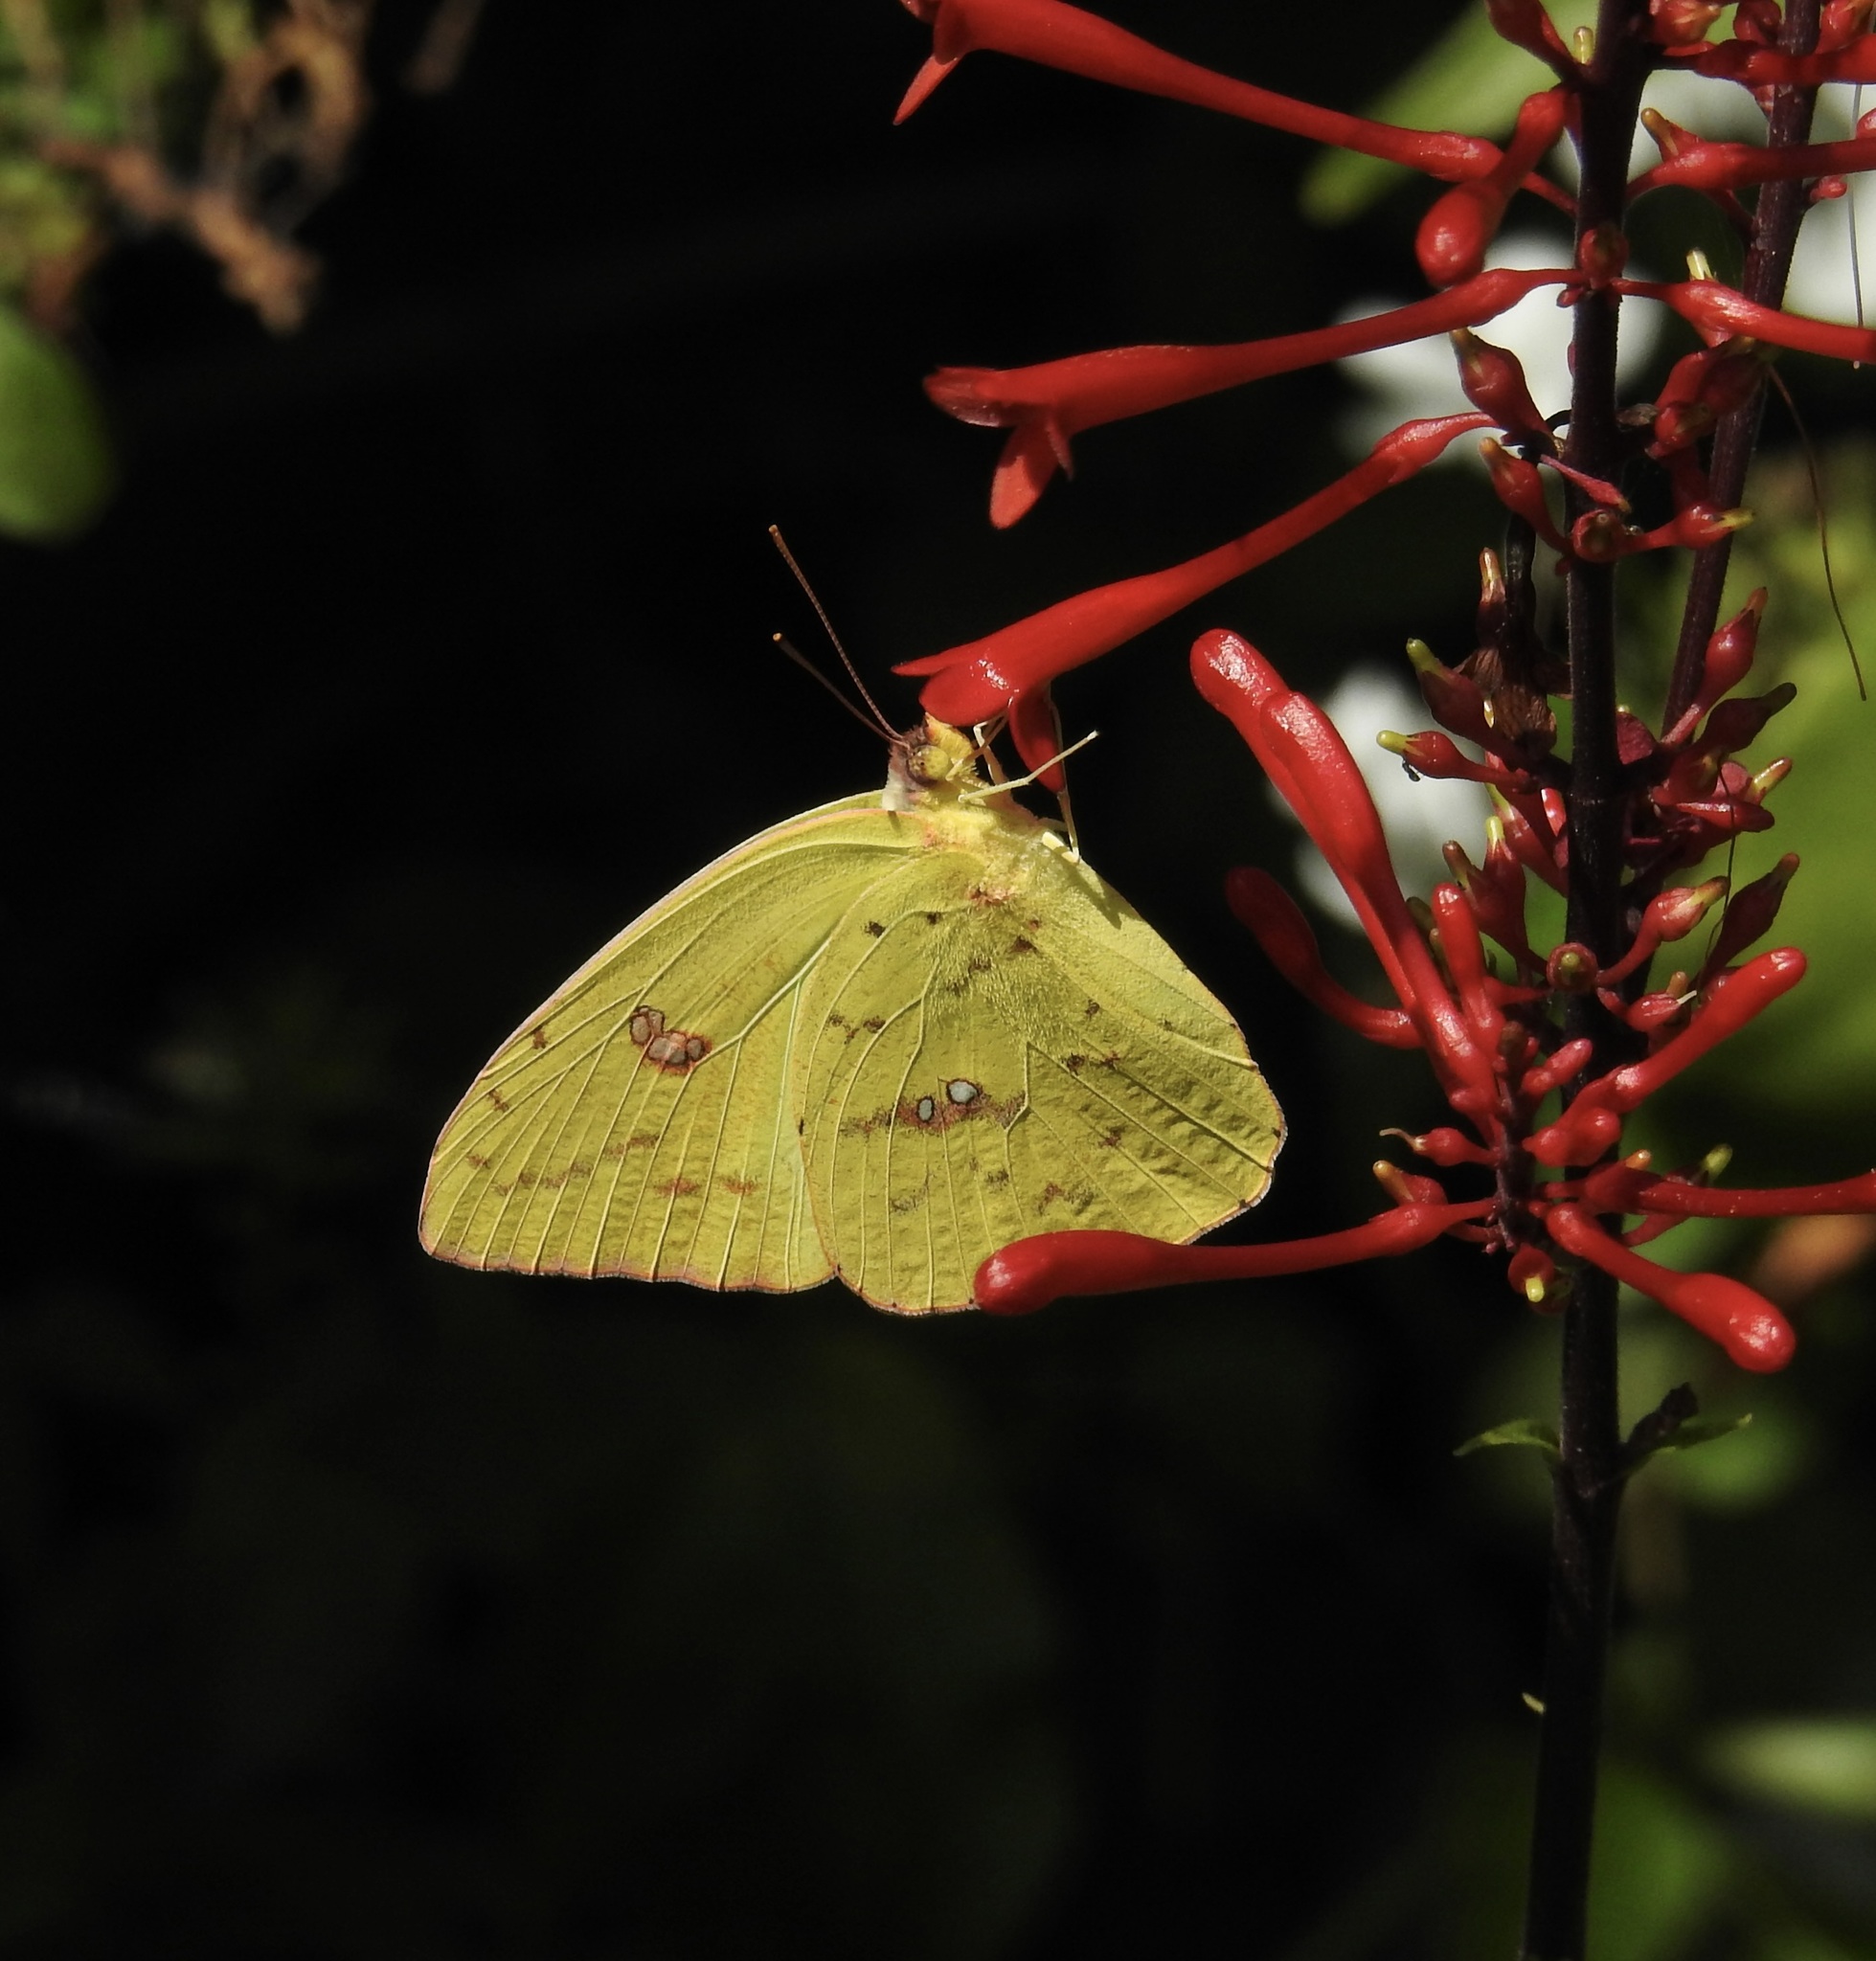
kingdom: Animalia
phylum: Arthropoda
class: Insecta
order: Lepidoptera
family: Pieridae
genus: Phoebis
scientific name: Phoebis sennae
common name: Cloudless sulphur
